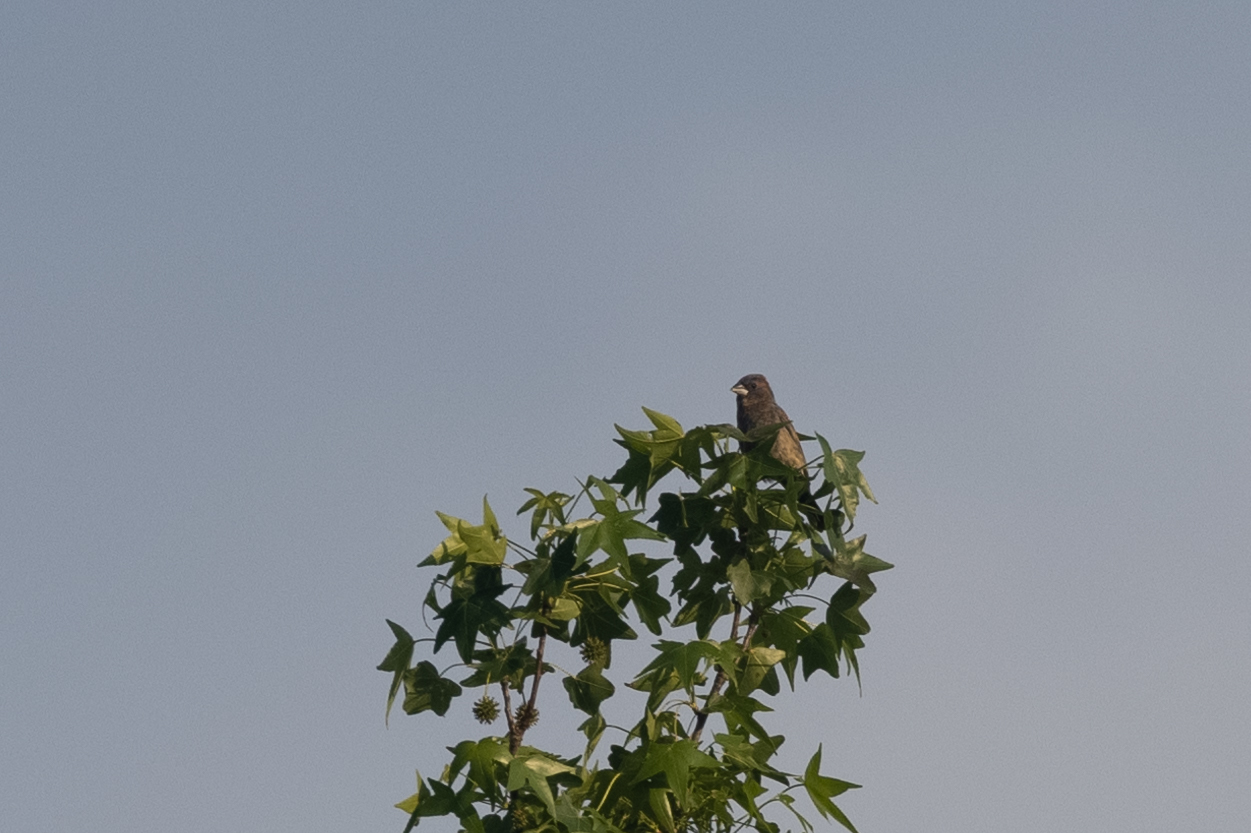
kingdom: Animalia
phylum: Chordata
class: Aves
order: Passeriformes
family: Cardinalidae
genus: Passerina
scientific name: Passerina caerulea
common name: Blue grosbeak
